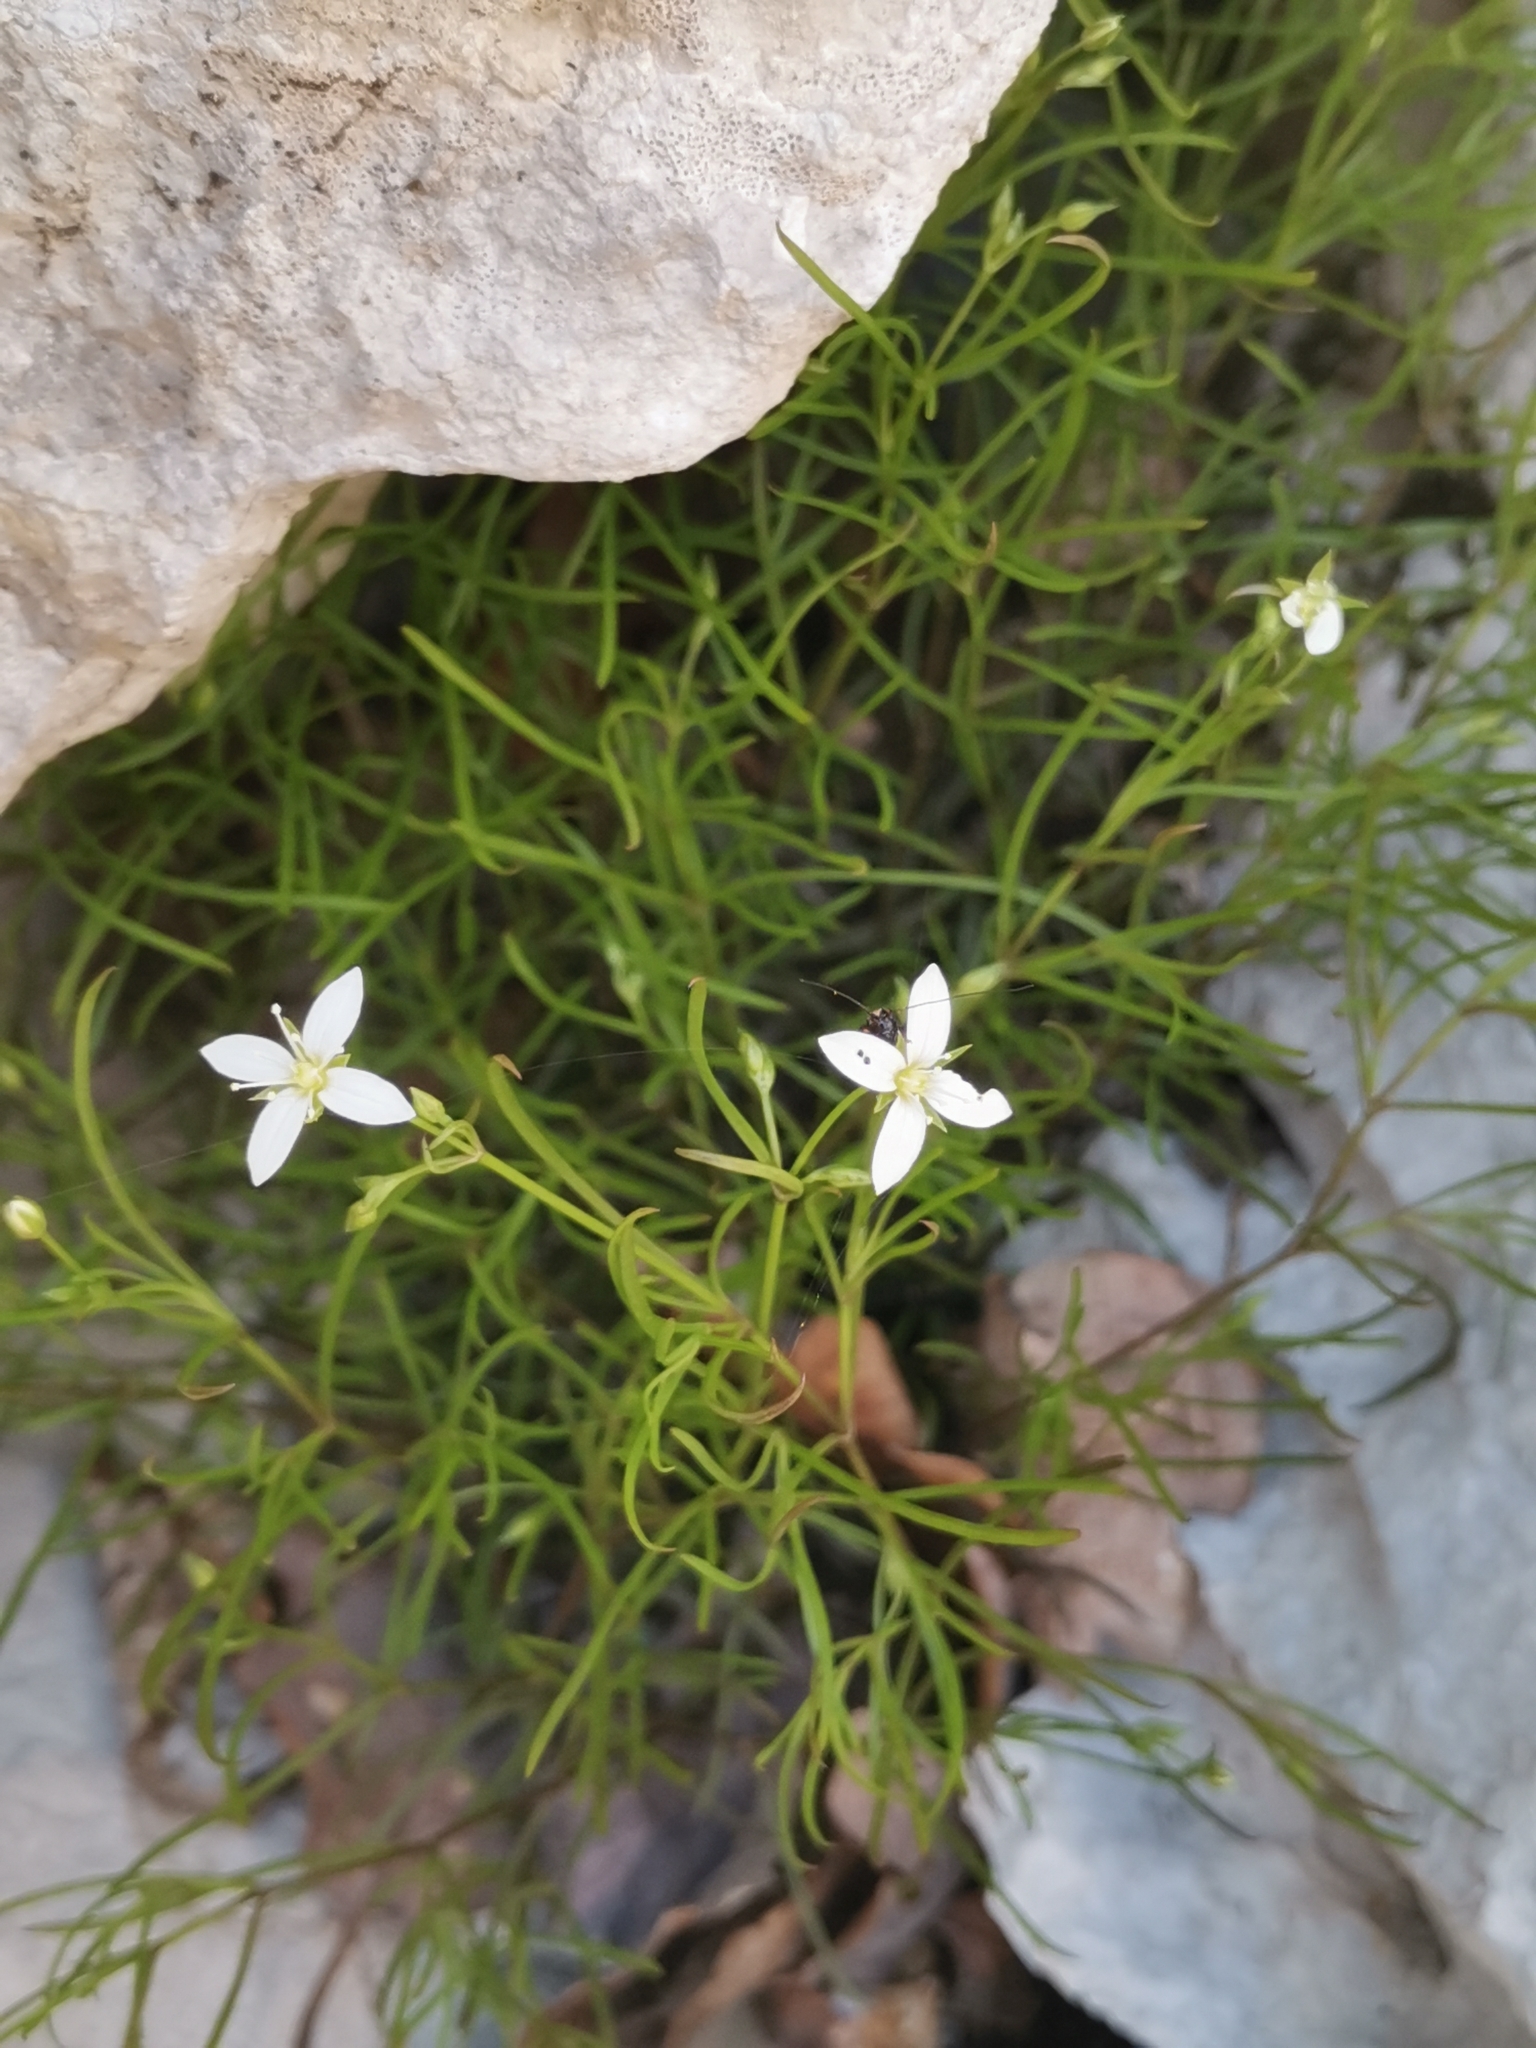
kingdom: Plantae
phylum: Tracheophyta
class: Magnoliopsida
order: Caryophyllales
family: Caryophyllaceae
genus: Moehringia
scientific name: Moehringia muscosa
